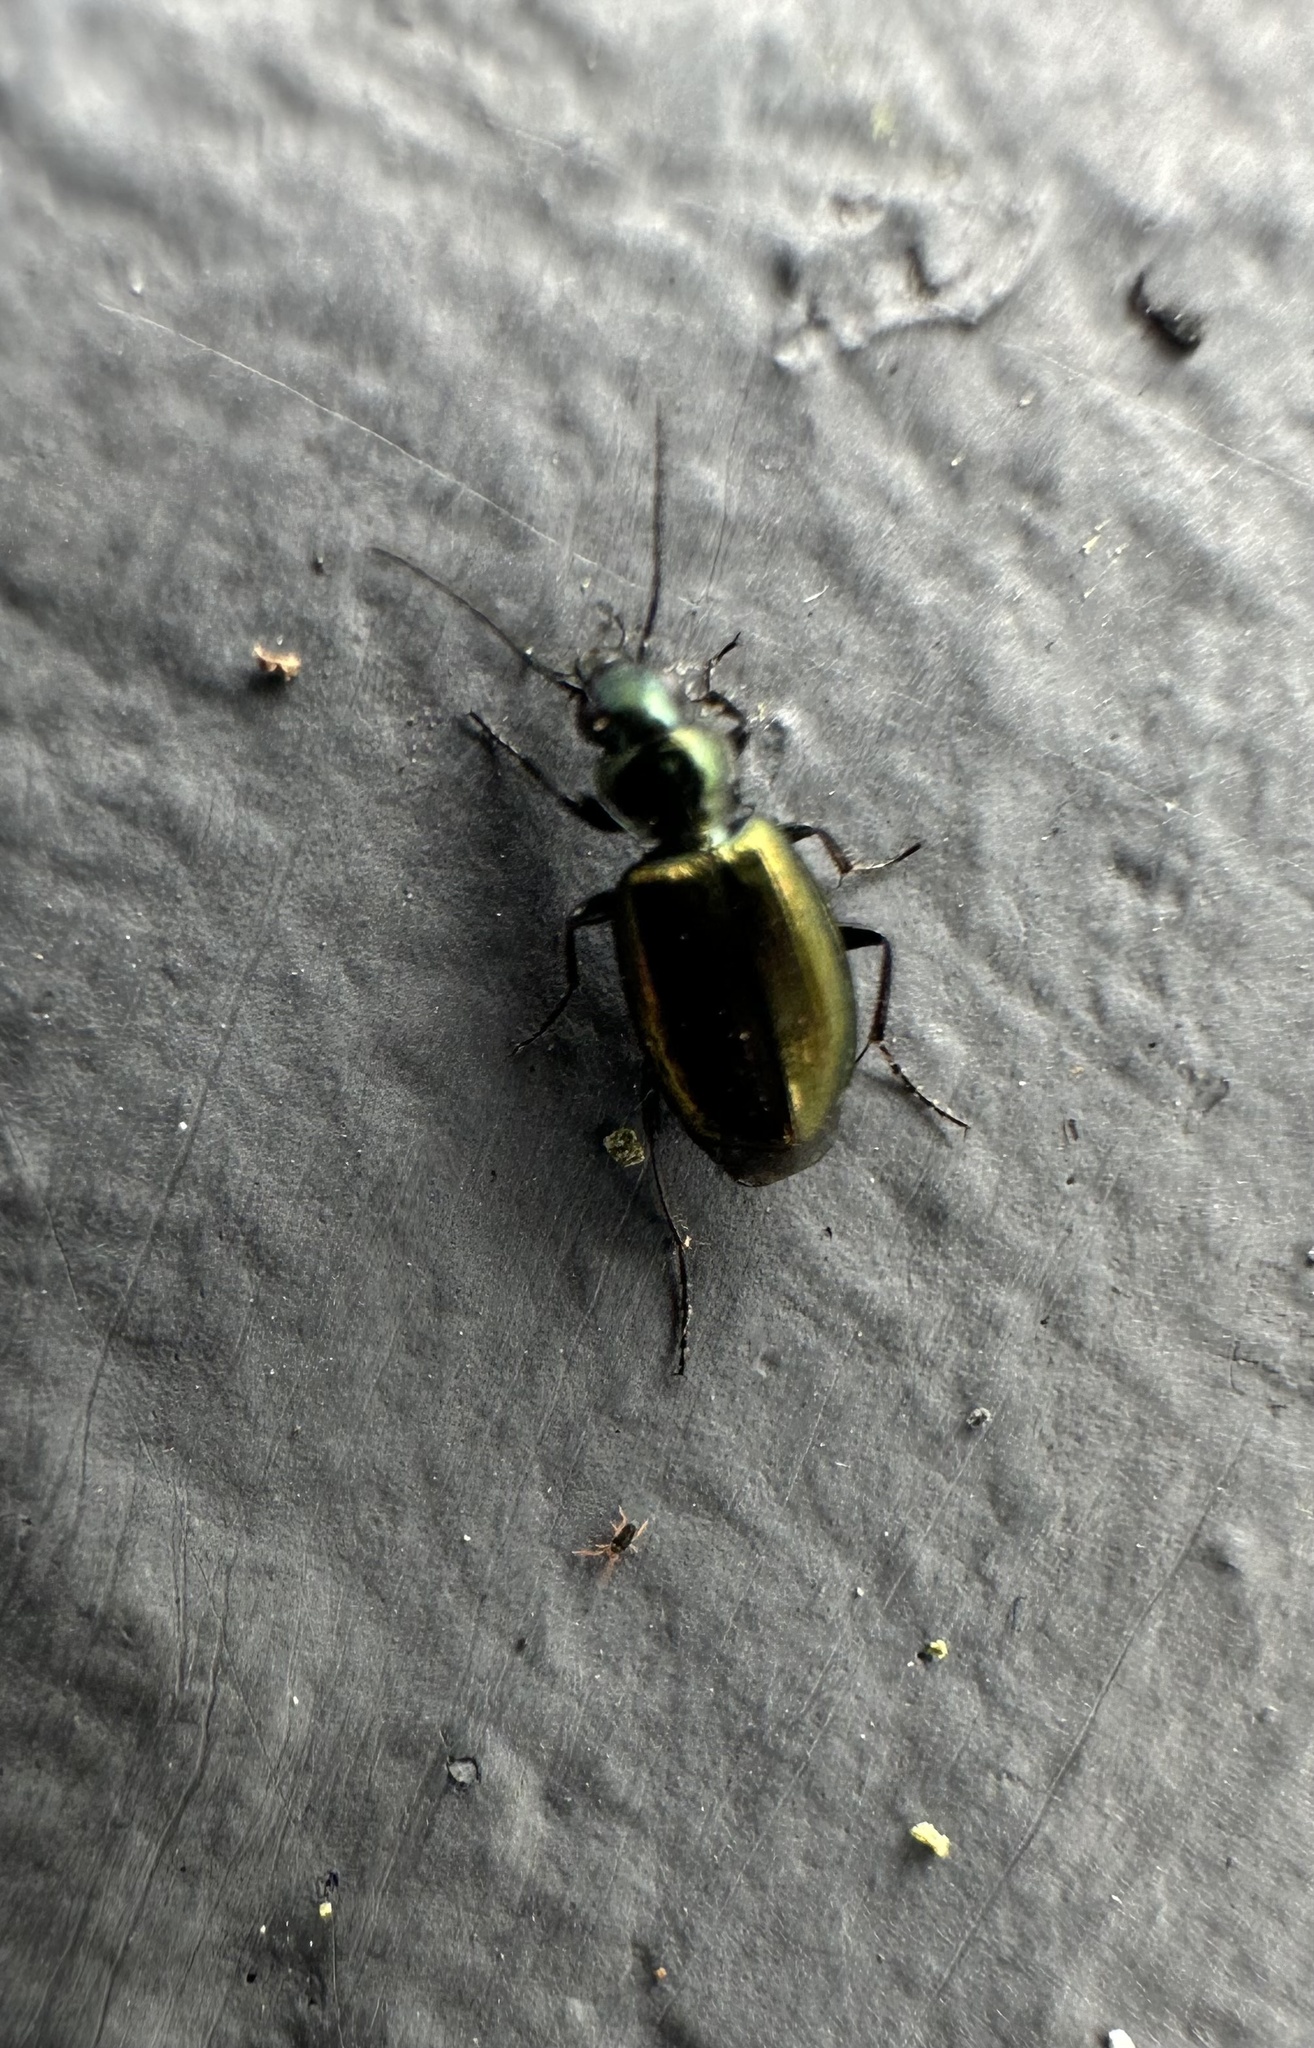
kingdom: Animalia
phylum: Arthropoda
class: Insecta
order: Coleoptera
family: Carabidae
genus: Tetragonoderus
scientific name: Tetragonoderus viridis
